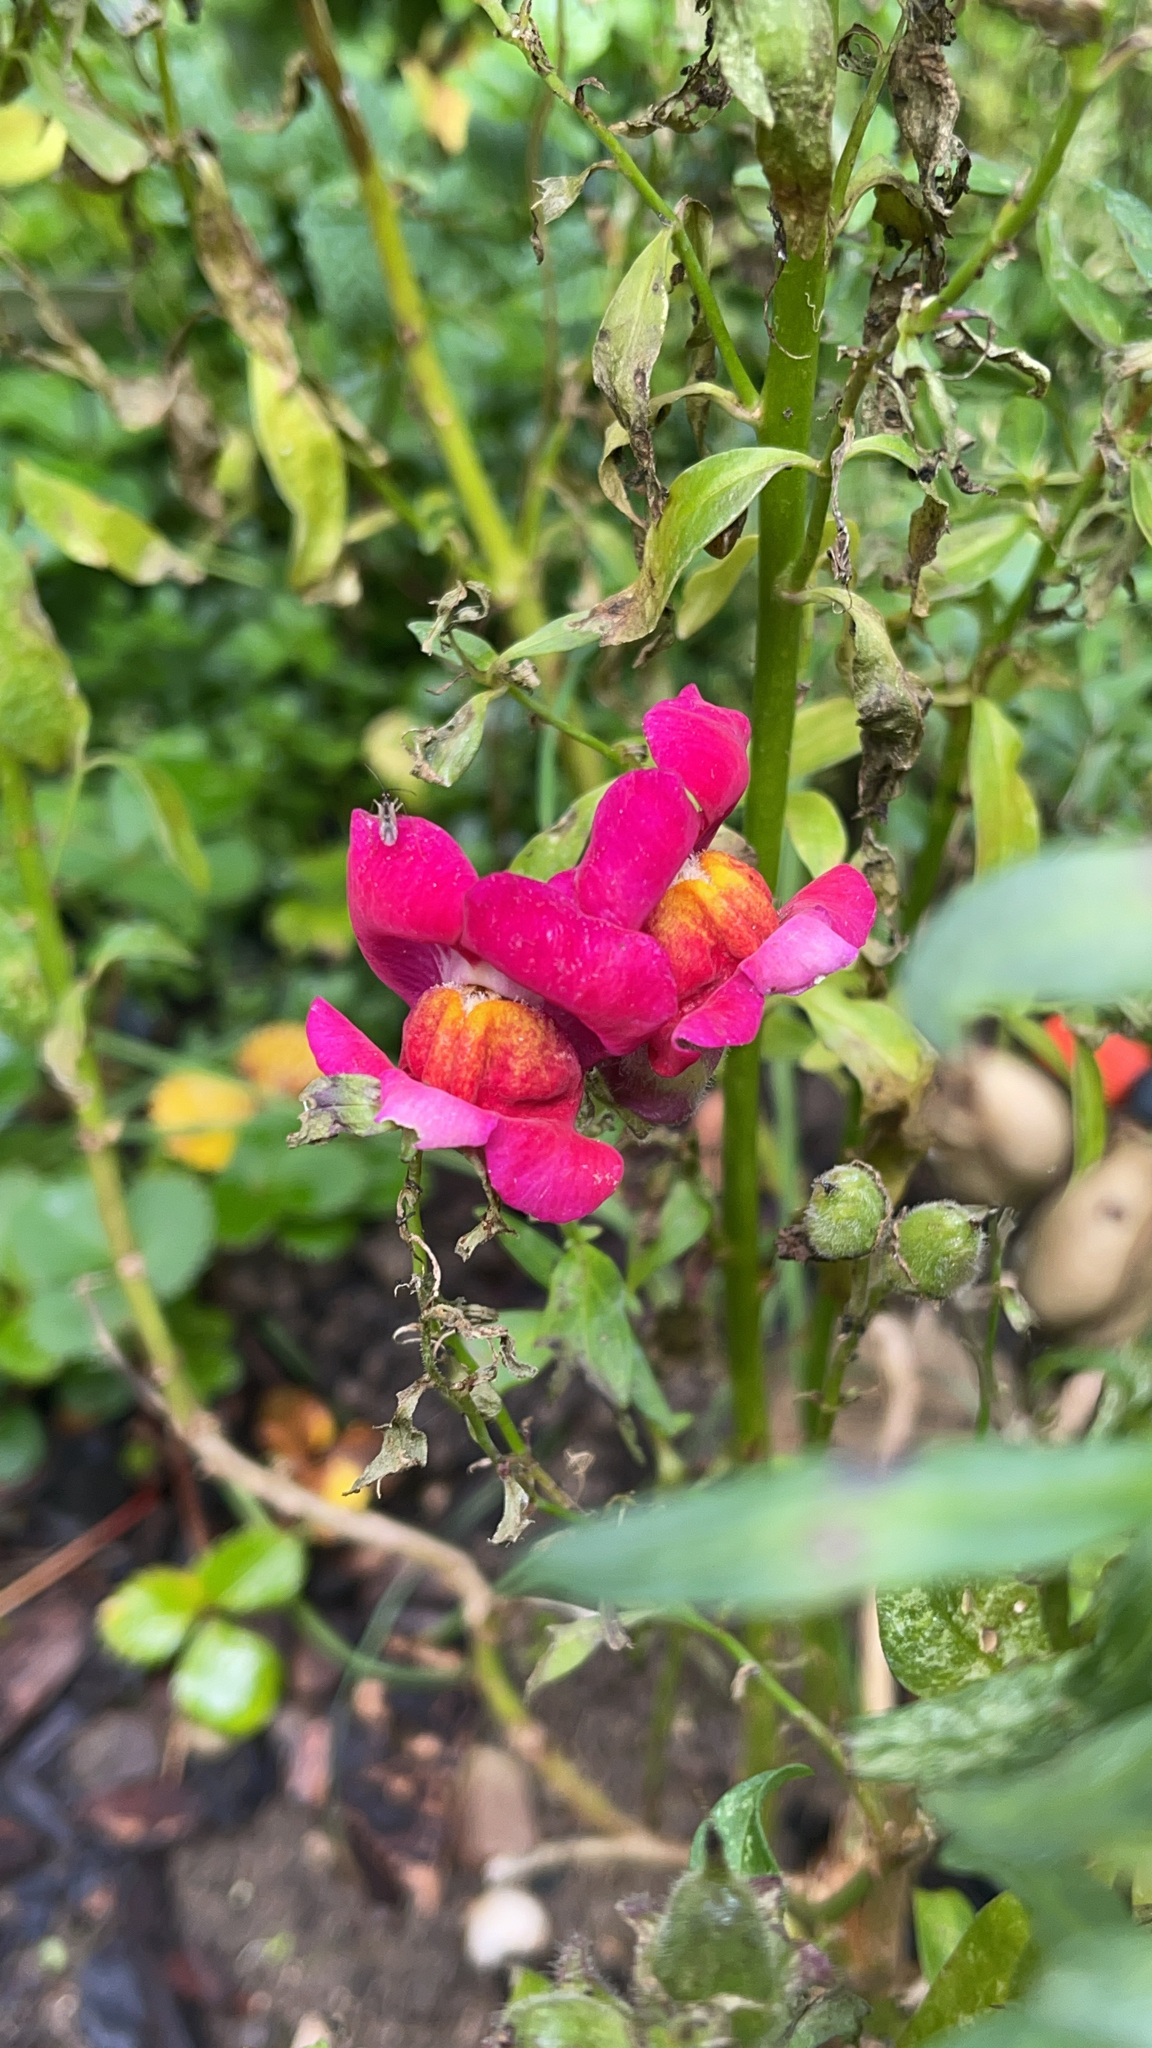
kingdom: Plantae
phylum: Tracheophyta
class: Magnoliopsida
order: Lamiales
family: Plantaginaceae
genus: Antirrhinum
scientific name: Antirrhinum majus
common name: Snapdragon
